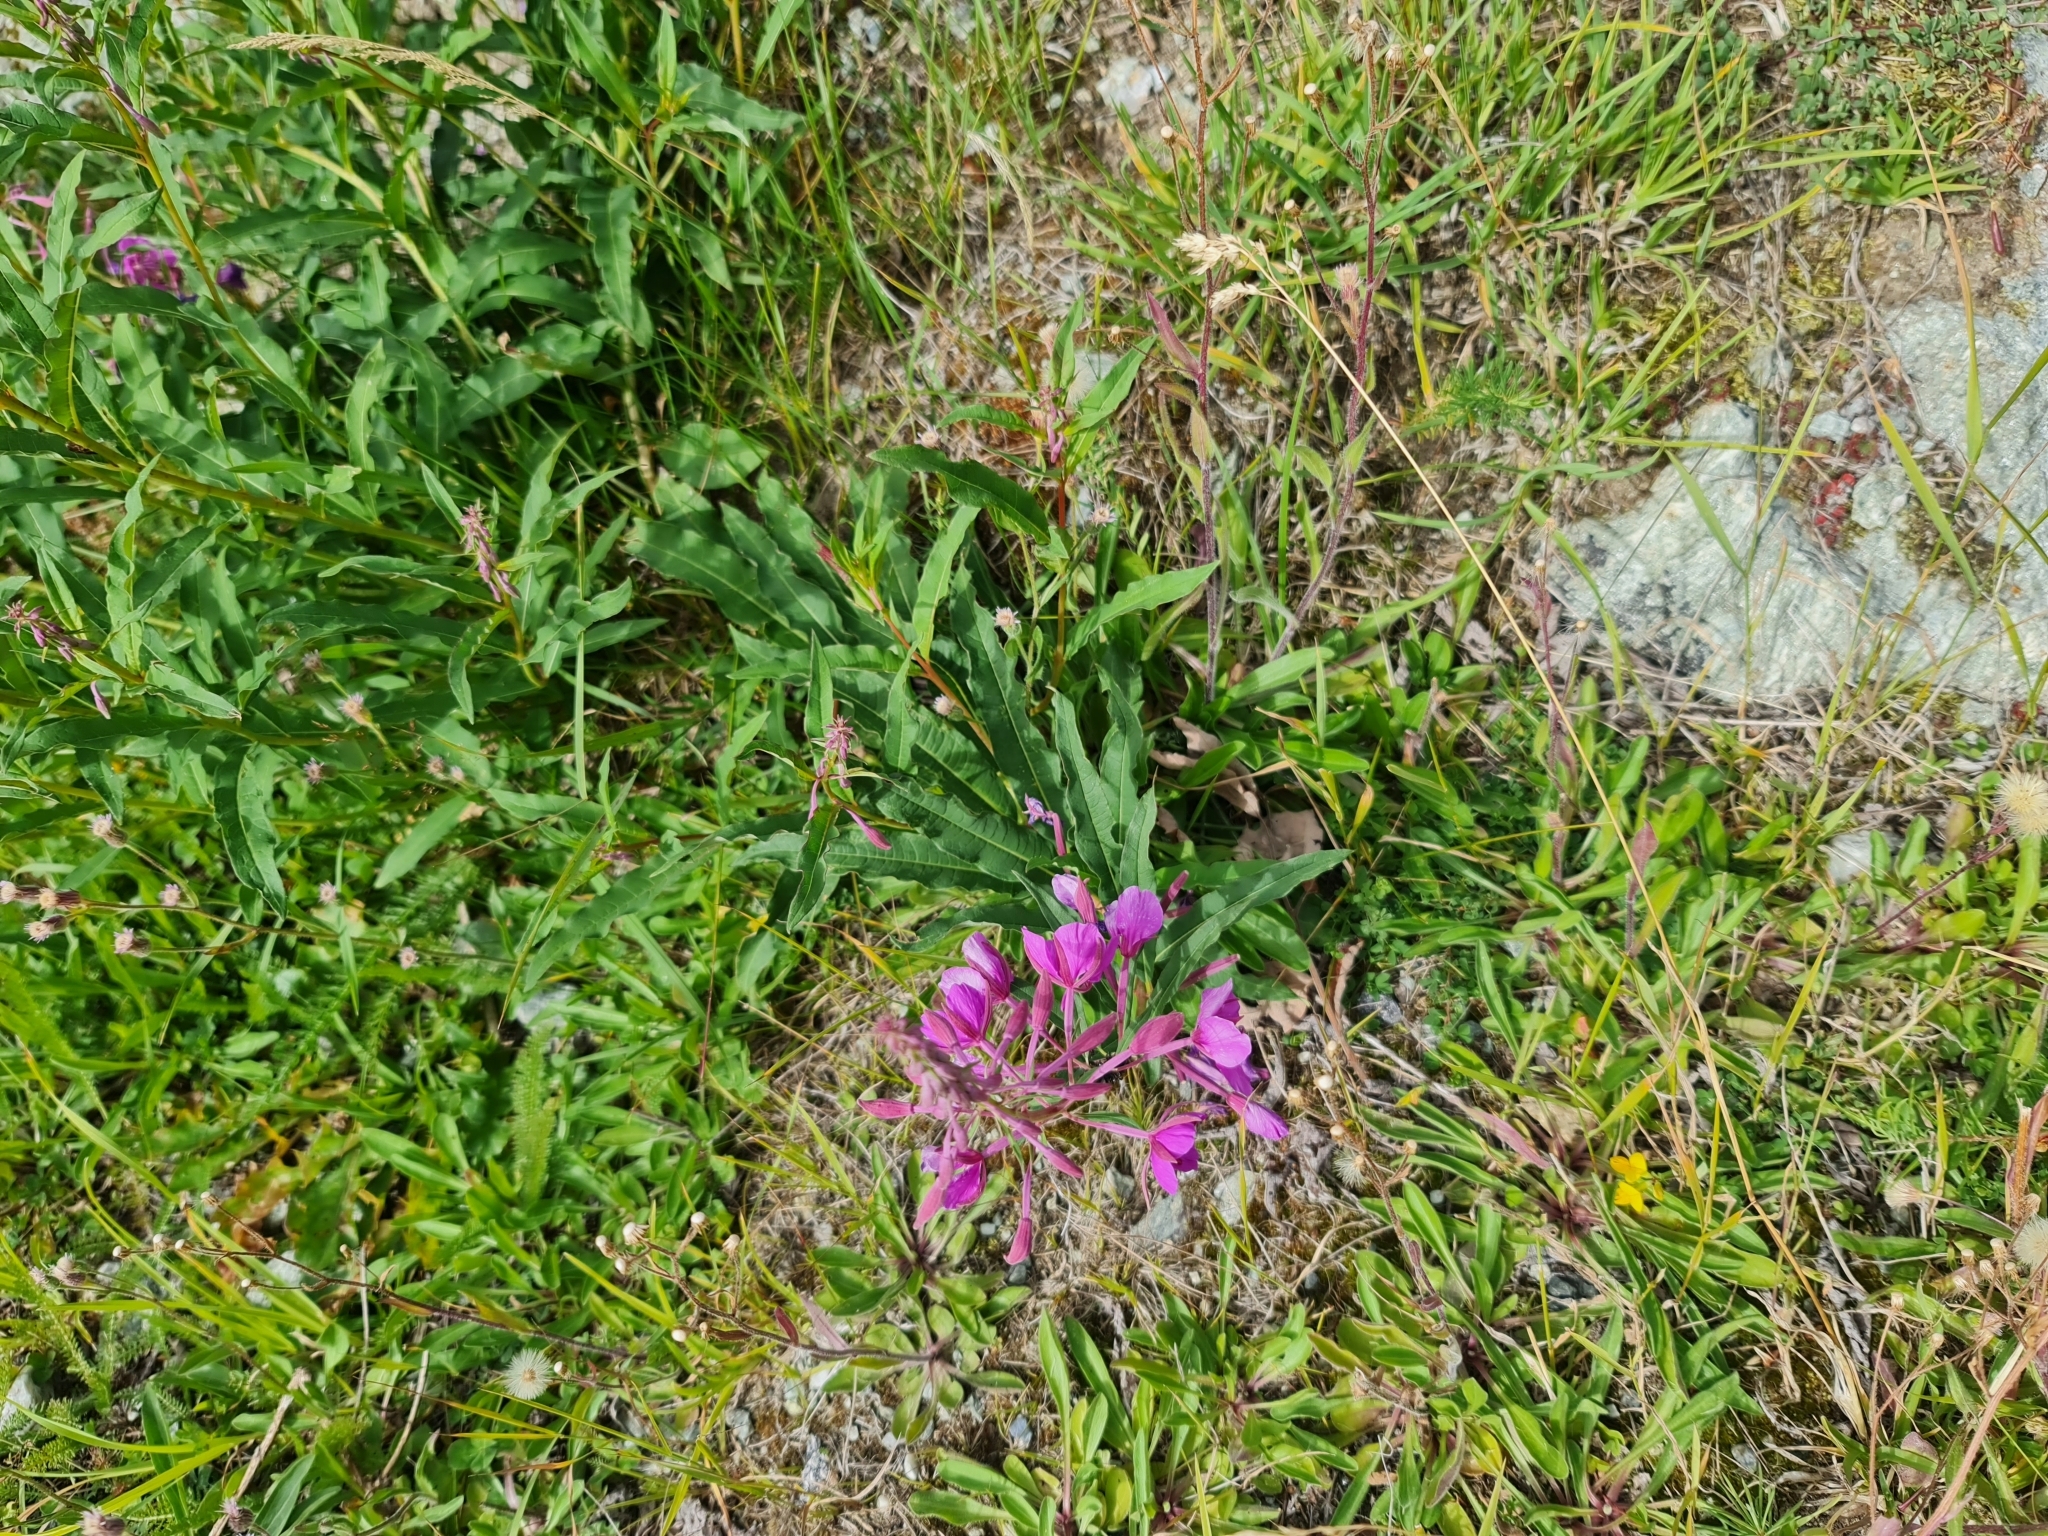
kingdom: Plantae
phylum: Tracheophyta
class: Magnoliopsida
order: Myrtales
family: Onagraceae
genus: Chamaenerion
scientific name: Chamaenerion angustifolium
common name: Fireweed
